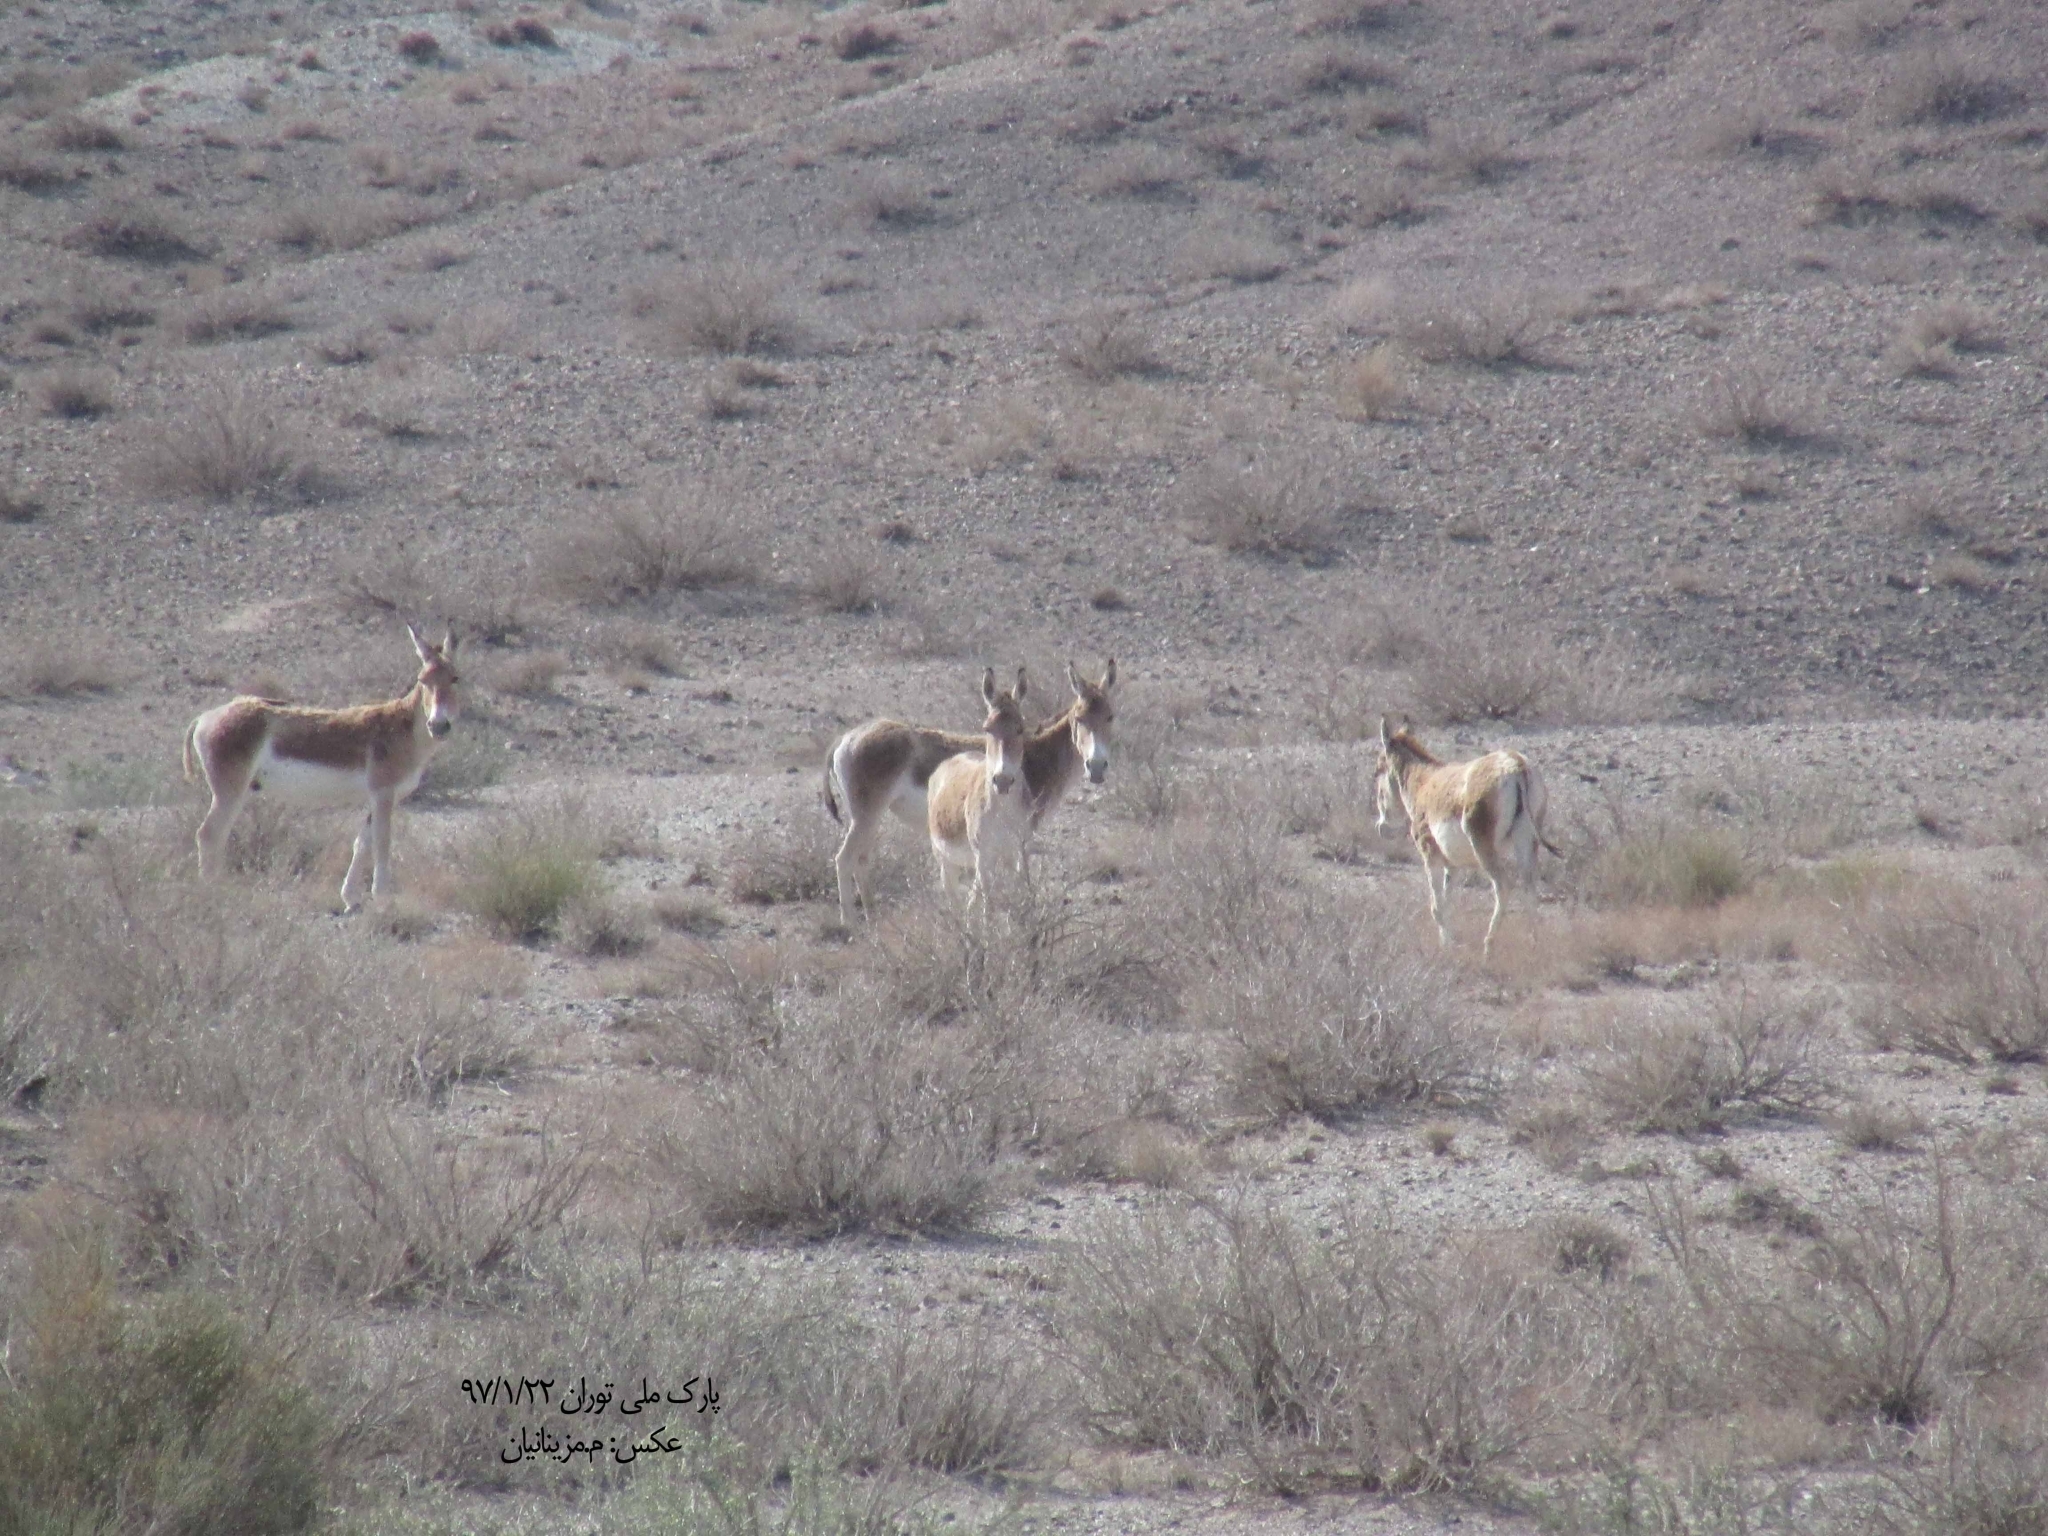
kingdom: Animalia
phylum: Chordata
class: Mammalia
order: Perissodactyla
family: Equidae
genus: Equus
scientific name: Equus hemionus
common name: Onager
